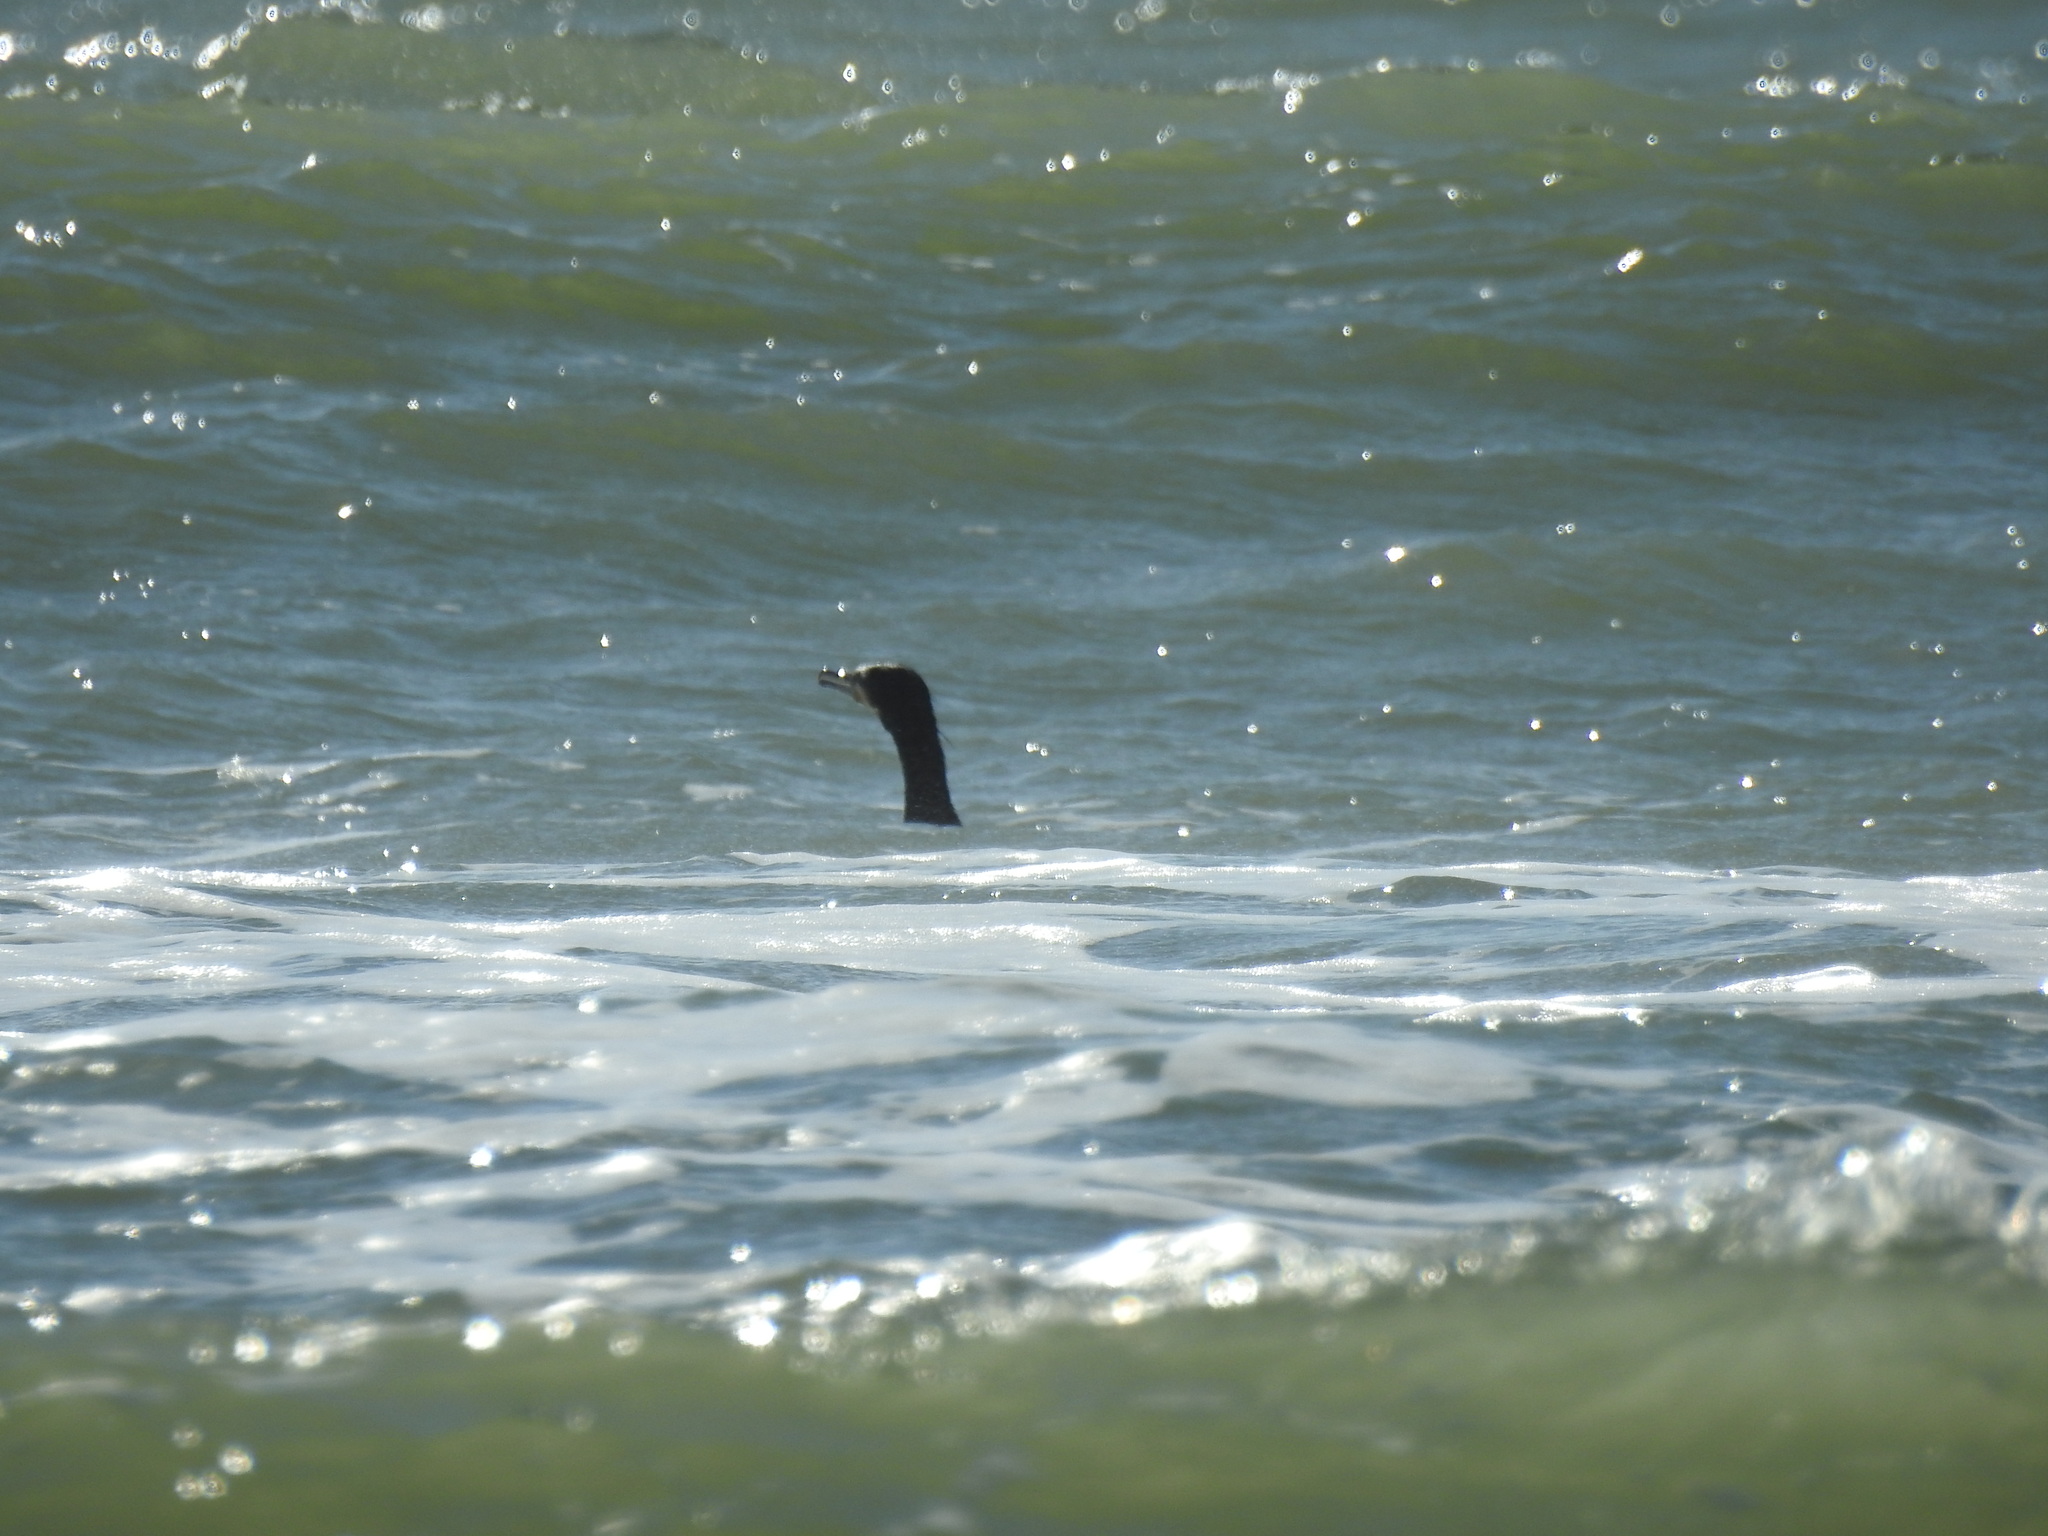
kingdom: Animalia
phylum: Chordata
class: Aves
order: Suliformes
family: Phalacrocoracidae
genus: Phalacrocorax
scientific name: Phalacrocorax carbo
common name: Great cormorant
